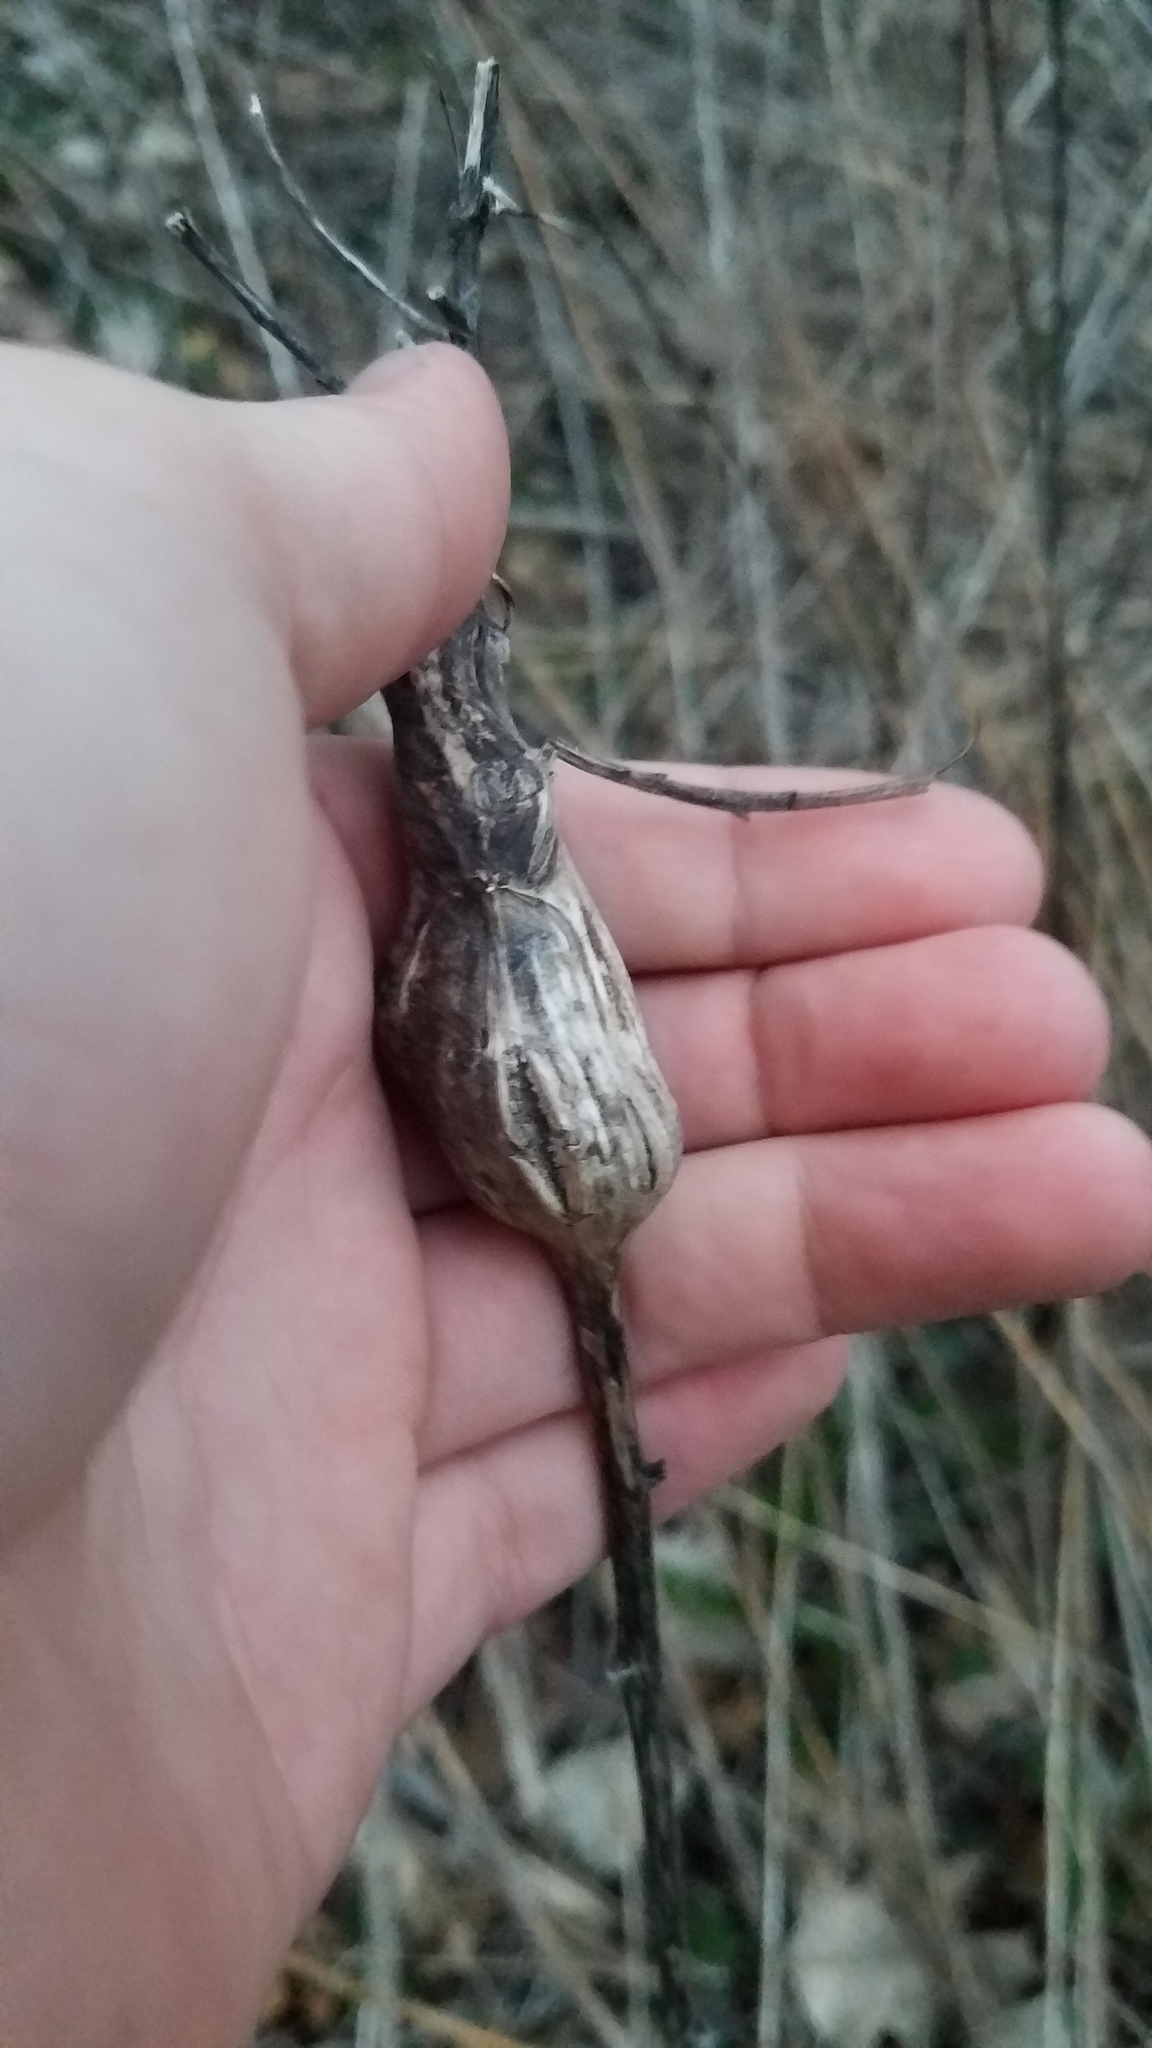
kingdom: Animalia
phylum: Arthropoda
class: Insecta
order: Diptera
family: Tephritidae
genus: Eurosta
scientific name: Eurosta solidaginis
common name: Goldenrod gall fly
